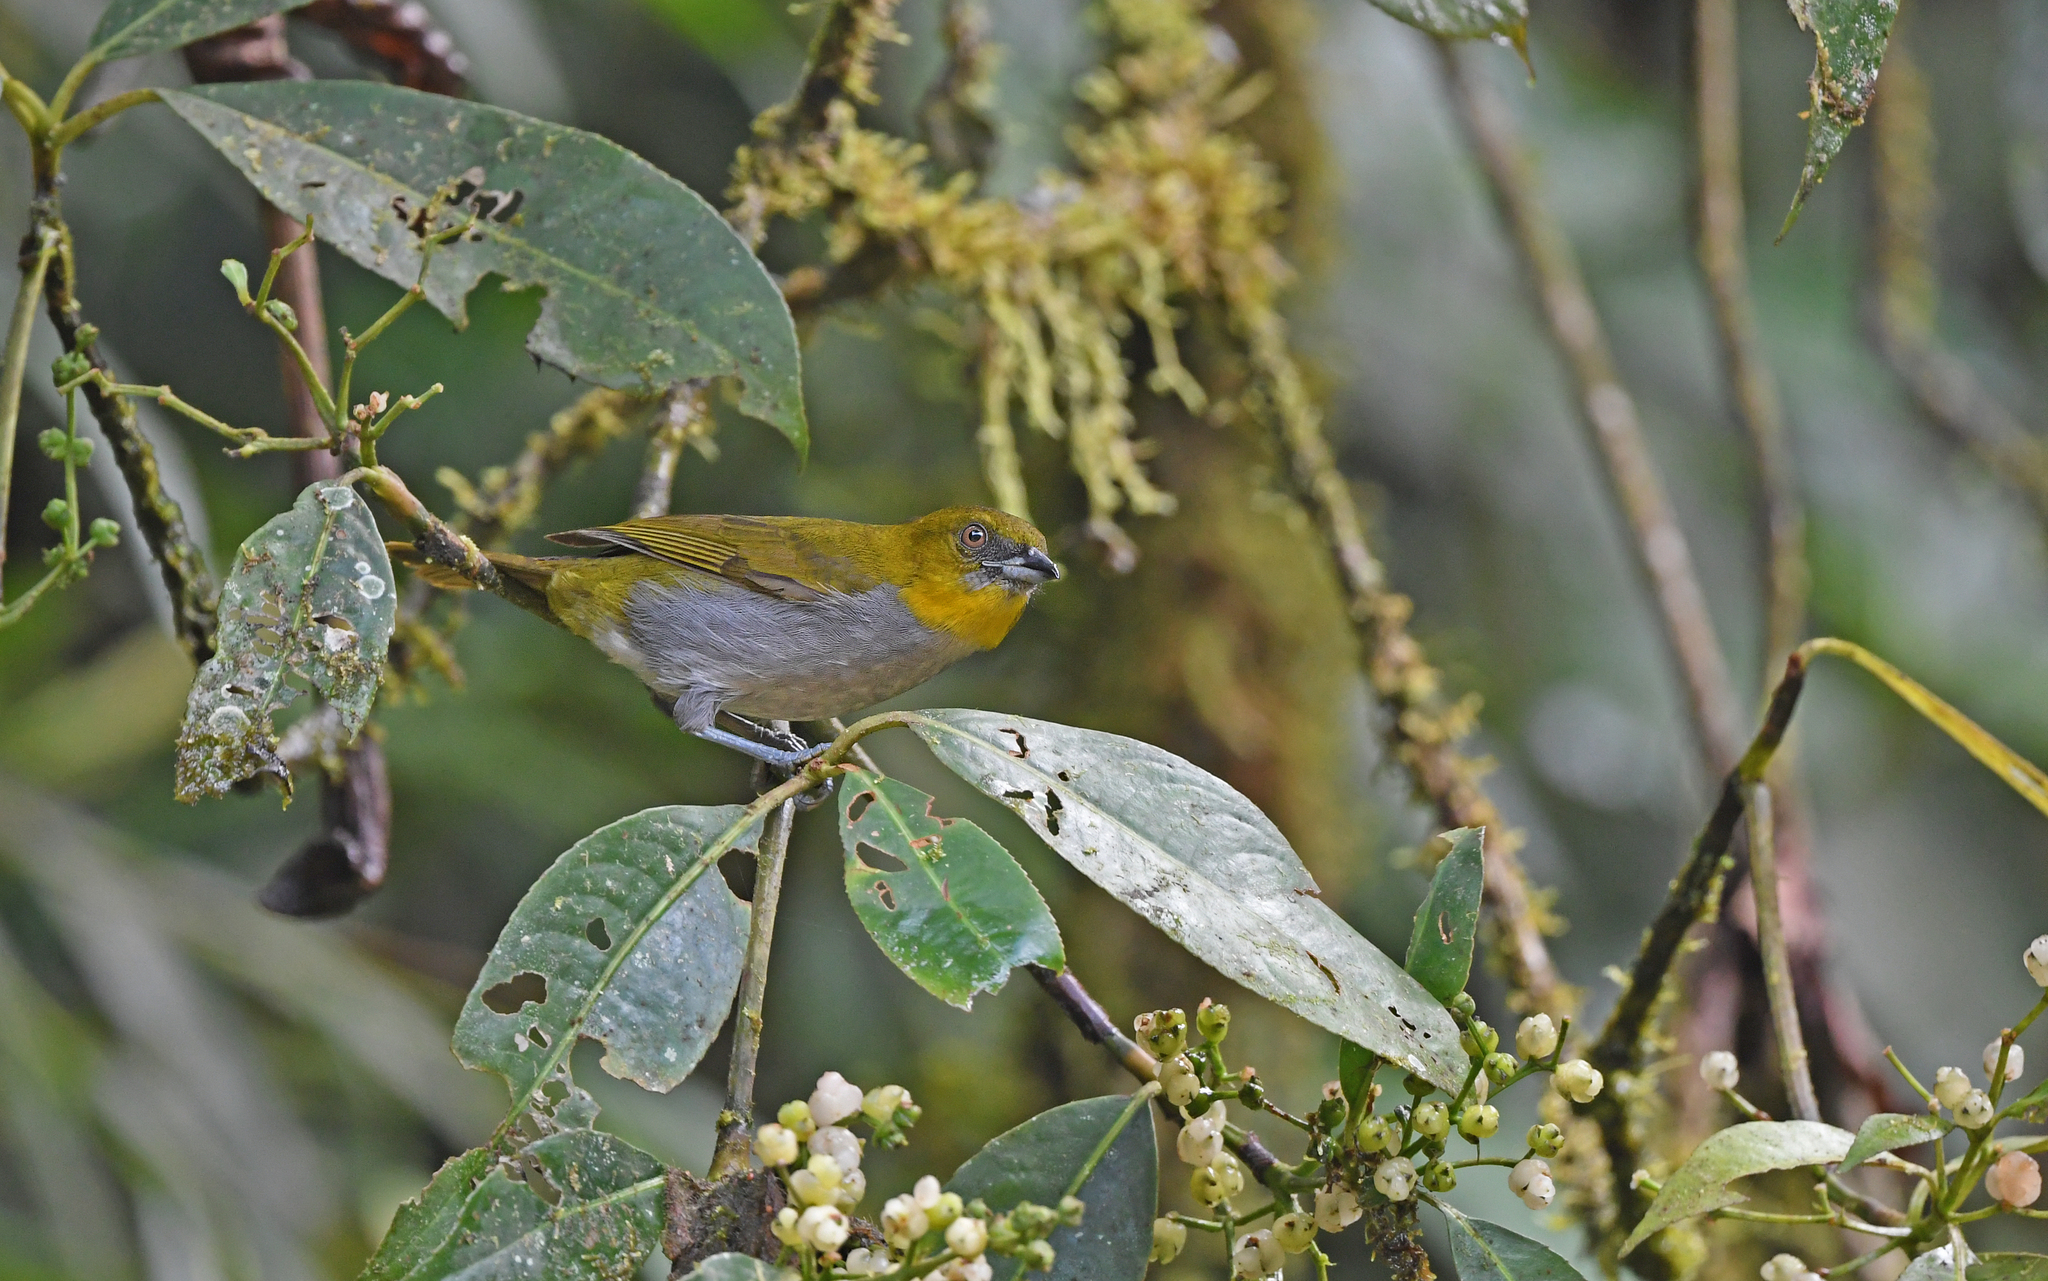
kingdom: Animalia
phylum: Chordata
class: Aves
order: Passeriformes
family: Passerellidae
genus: Chlorospingus
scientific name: Chlorospingus flavigularis
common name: Yellow-throated bush-tanager
